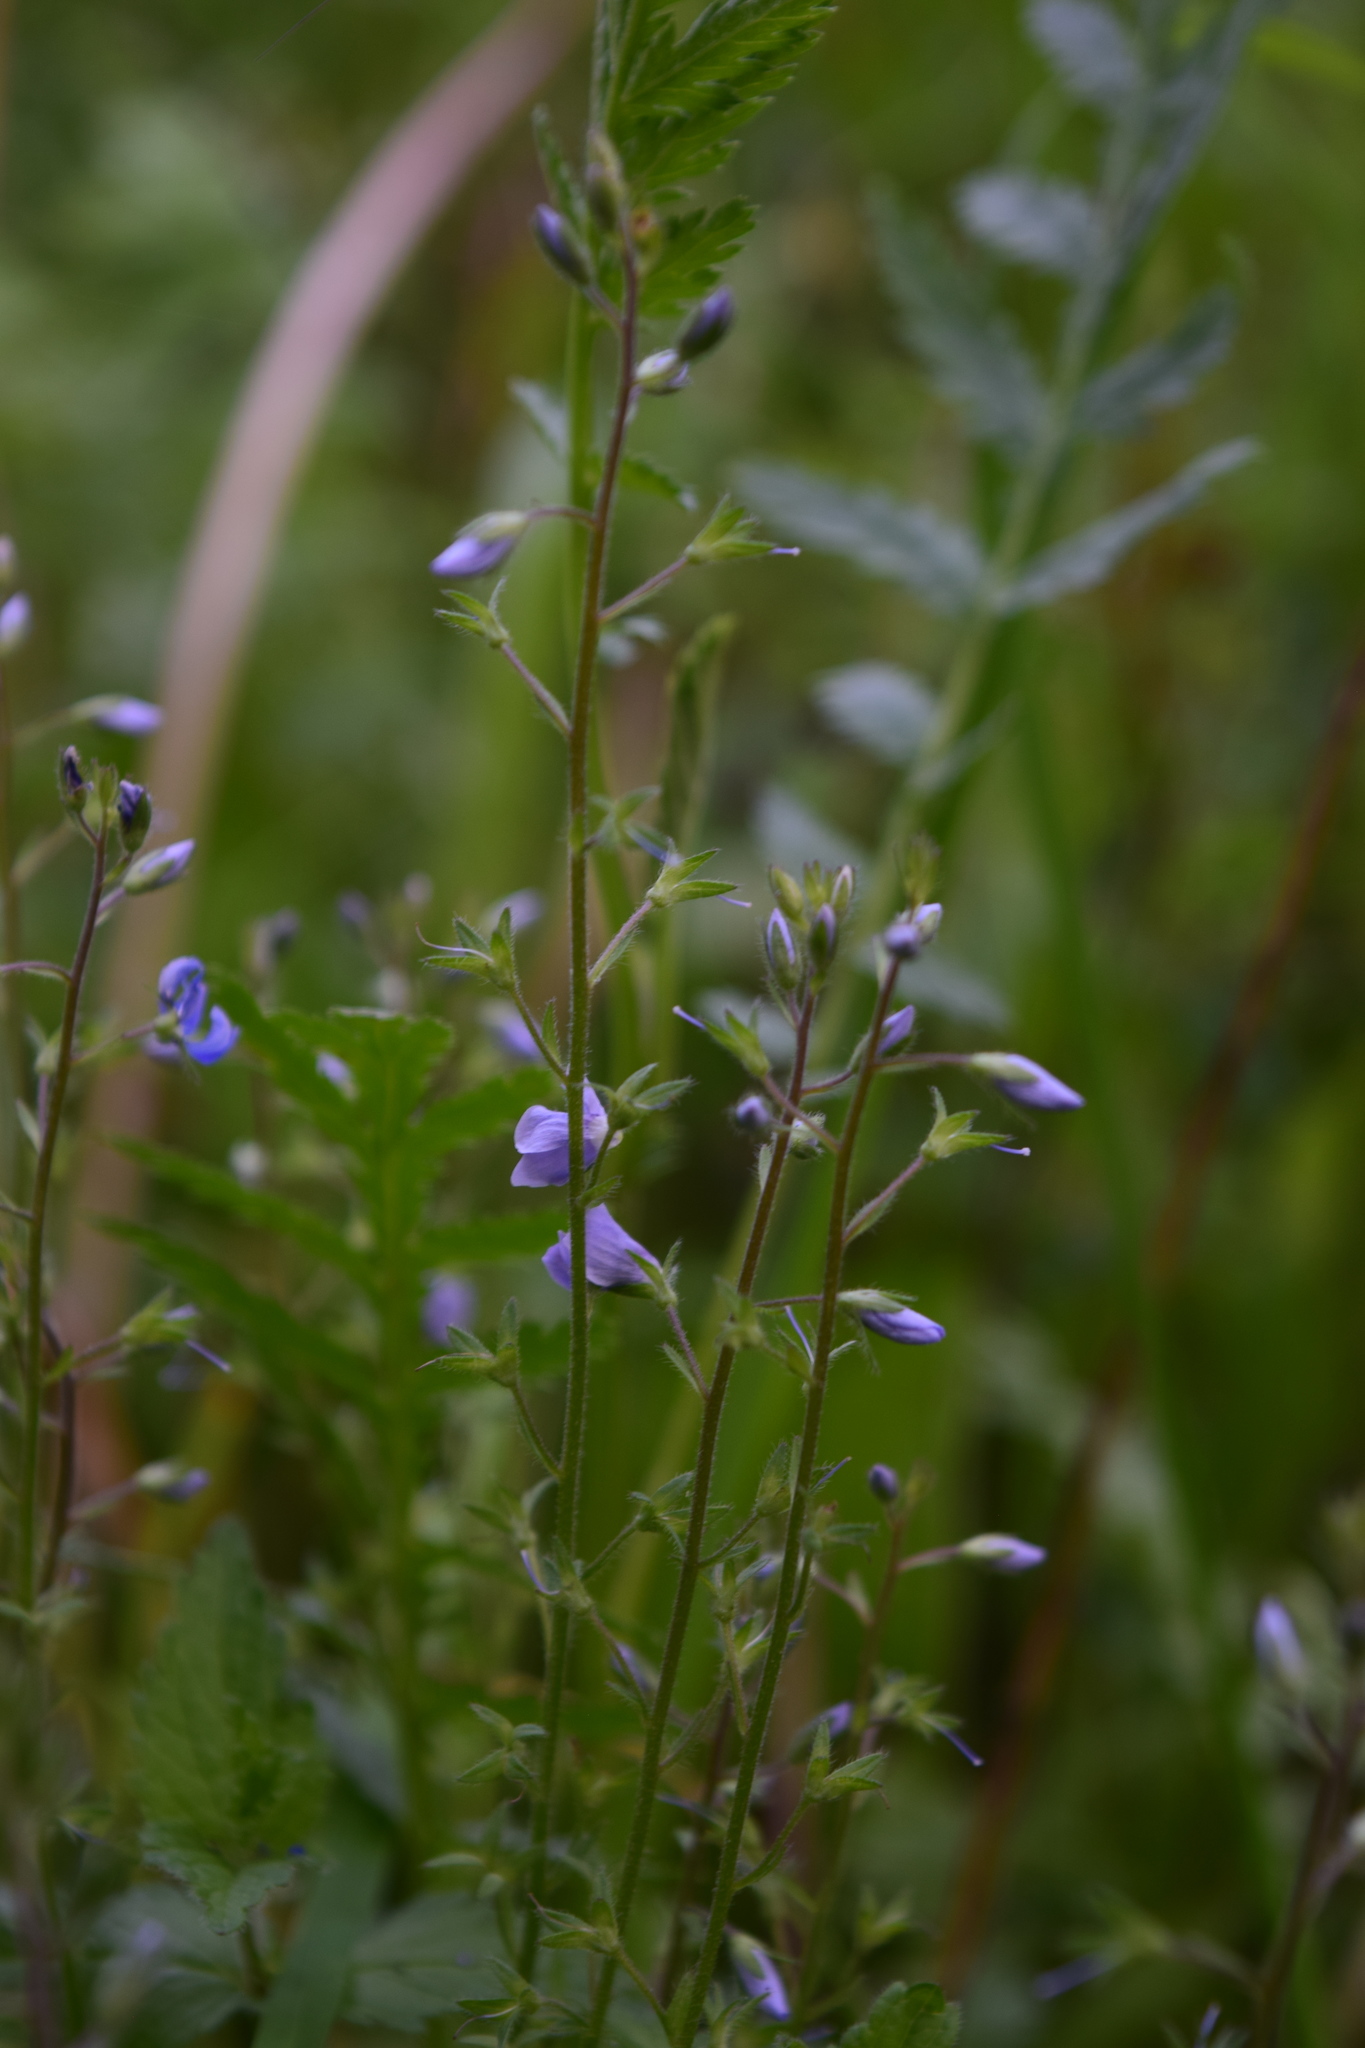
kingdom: Plantae
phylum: Tracheophyta
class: Magnoliopsida
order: Lamiales
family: Plantaginaceae
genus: Veronica
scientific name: Veronica chamaedrys
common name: Germander speedwell
